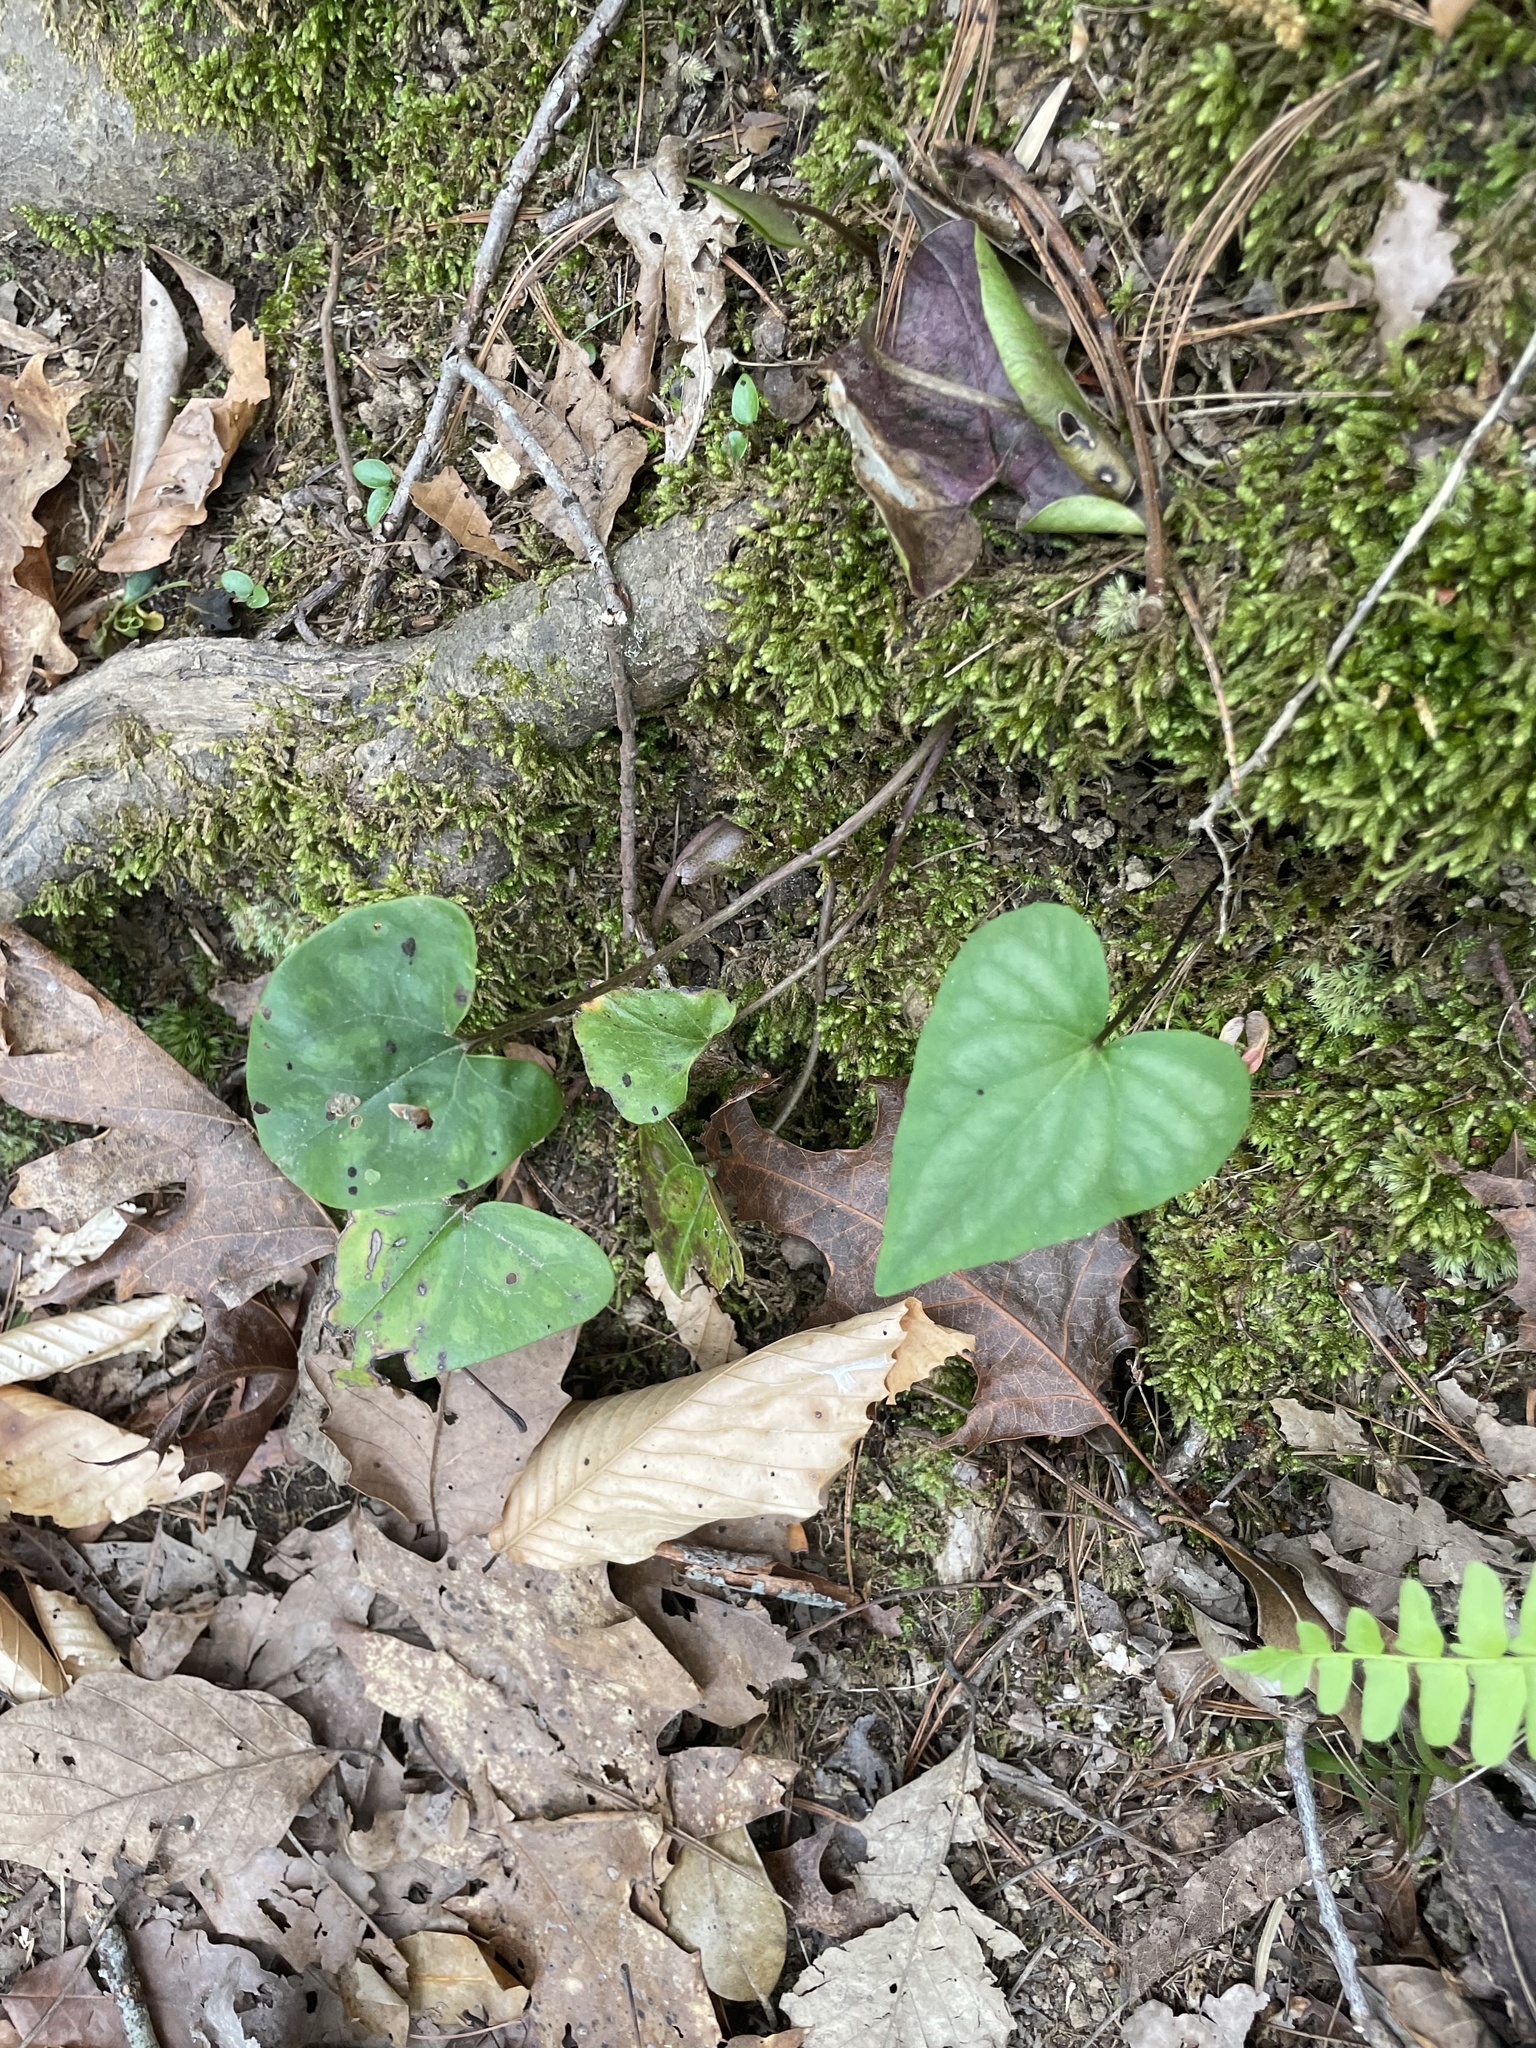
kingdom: Plantae
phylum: Tracheophyta
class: Magnoliopsida
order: Malpighiales
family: Violaceae
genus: Viola
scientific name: Viola hastata
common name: Spear-leaf violet
